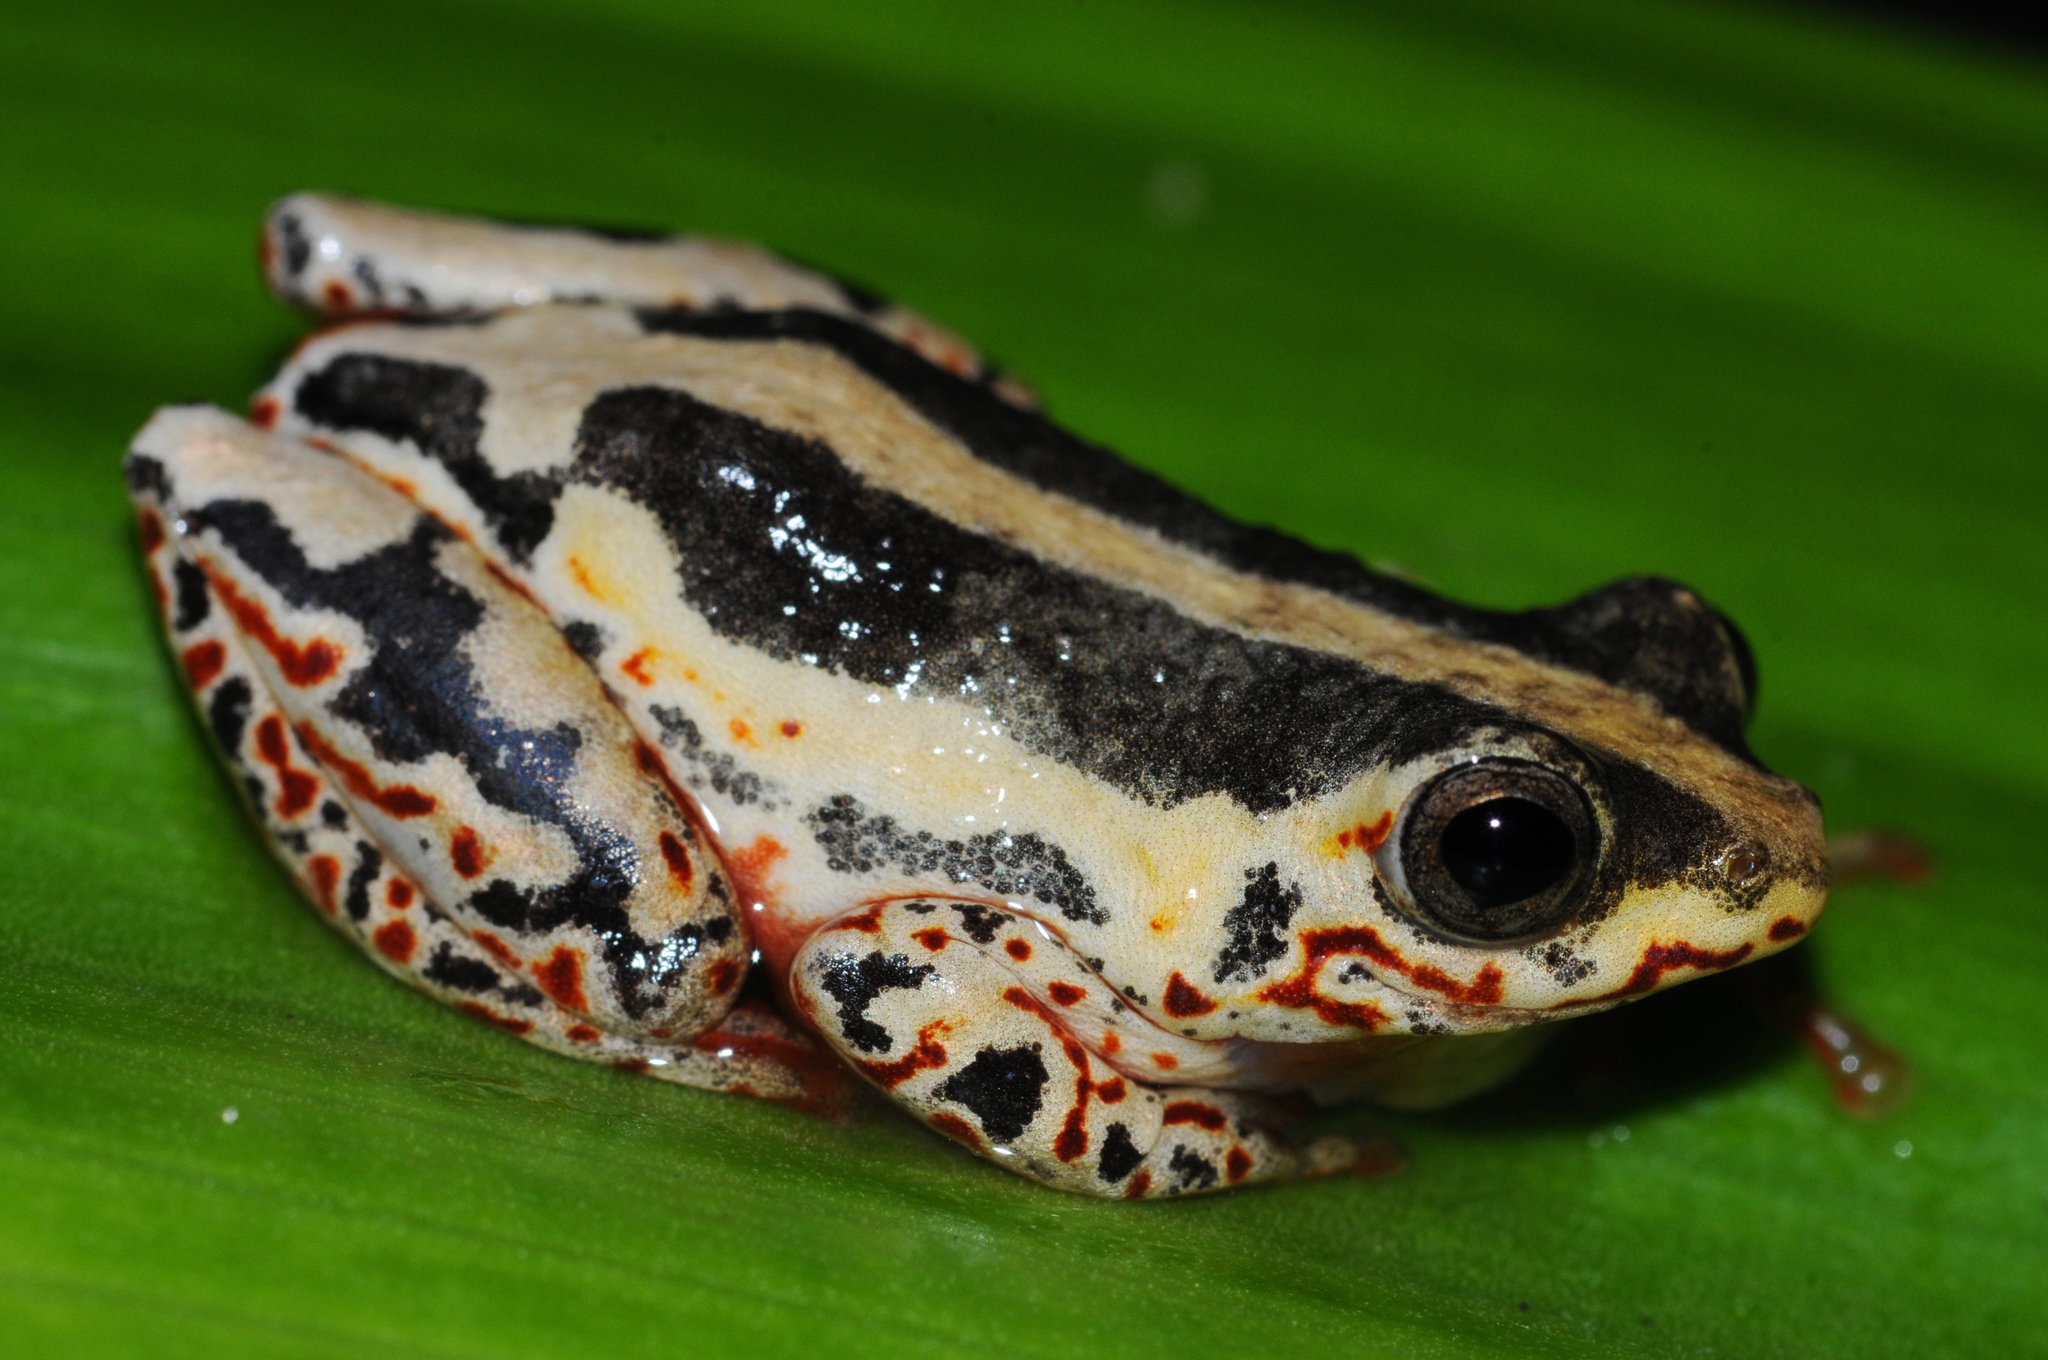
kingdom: Animalia
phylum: Chordata
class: Amphibia
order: Anura
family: Hyperoliidae
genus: Hyperolius
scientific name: Hyperolius marmoratus
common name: Painted reed frog
